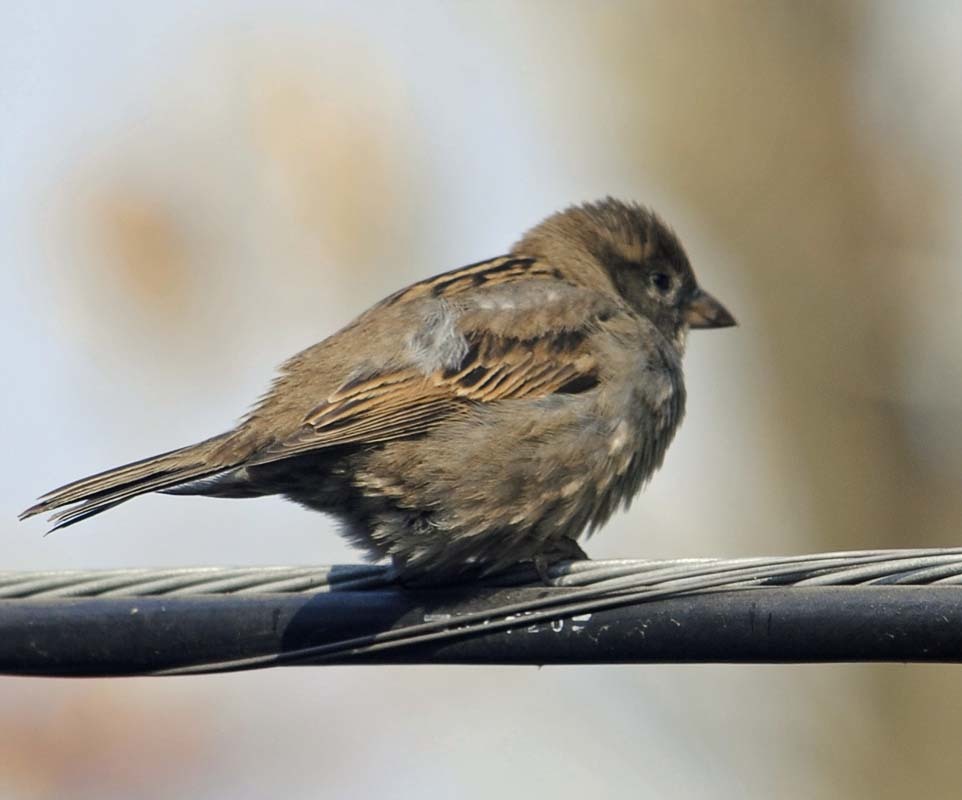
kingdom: Animalia
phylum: Chordata
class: Aves
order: Passeriformes
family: Passeridae
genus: Passer
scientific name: Passer domesticus
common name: House sparrow
